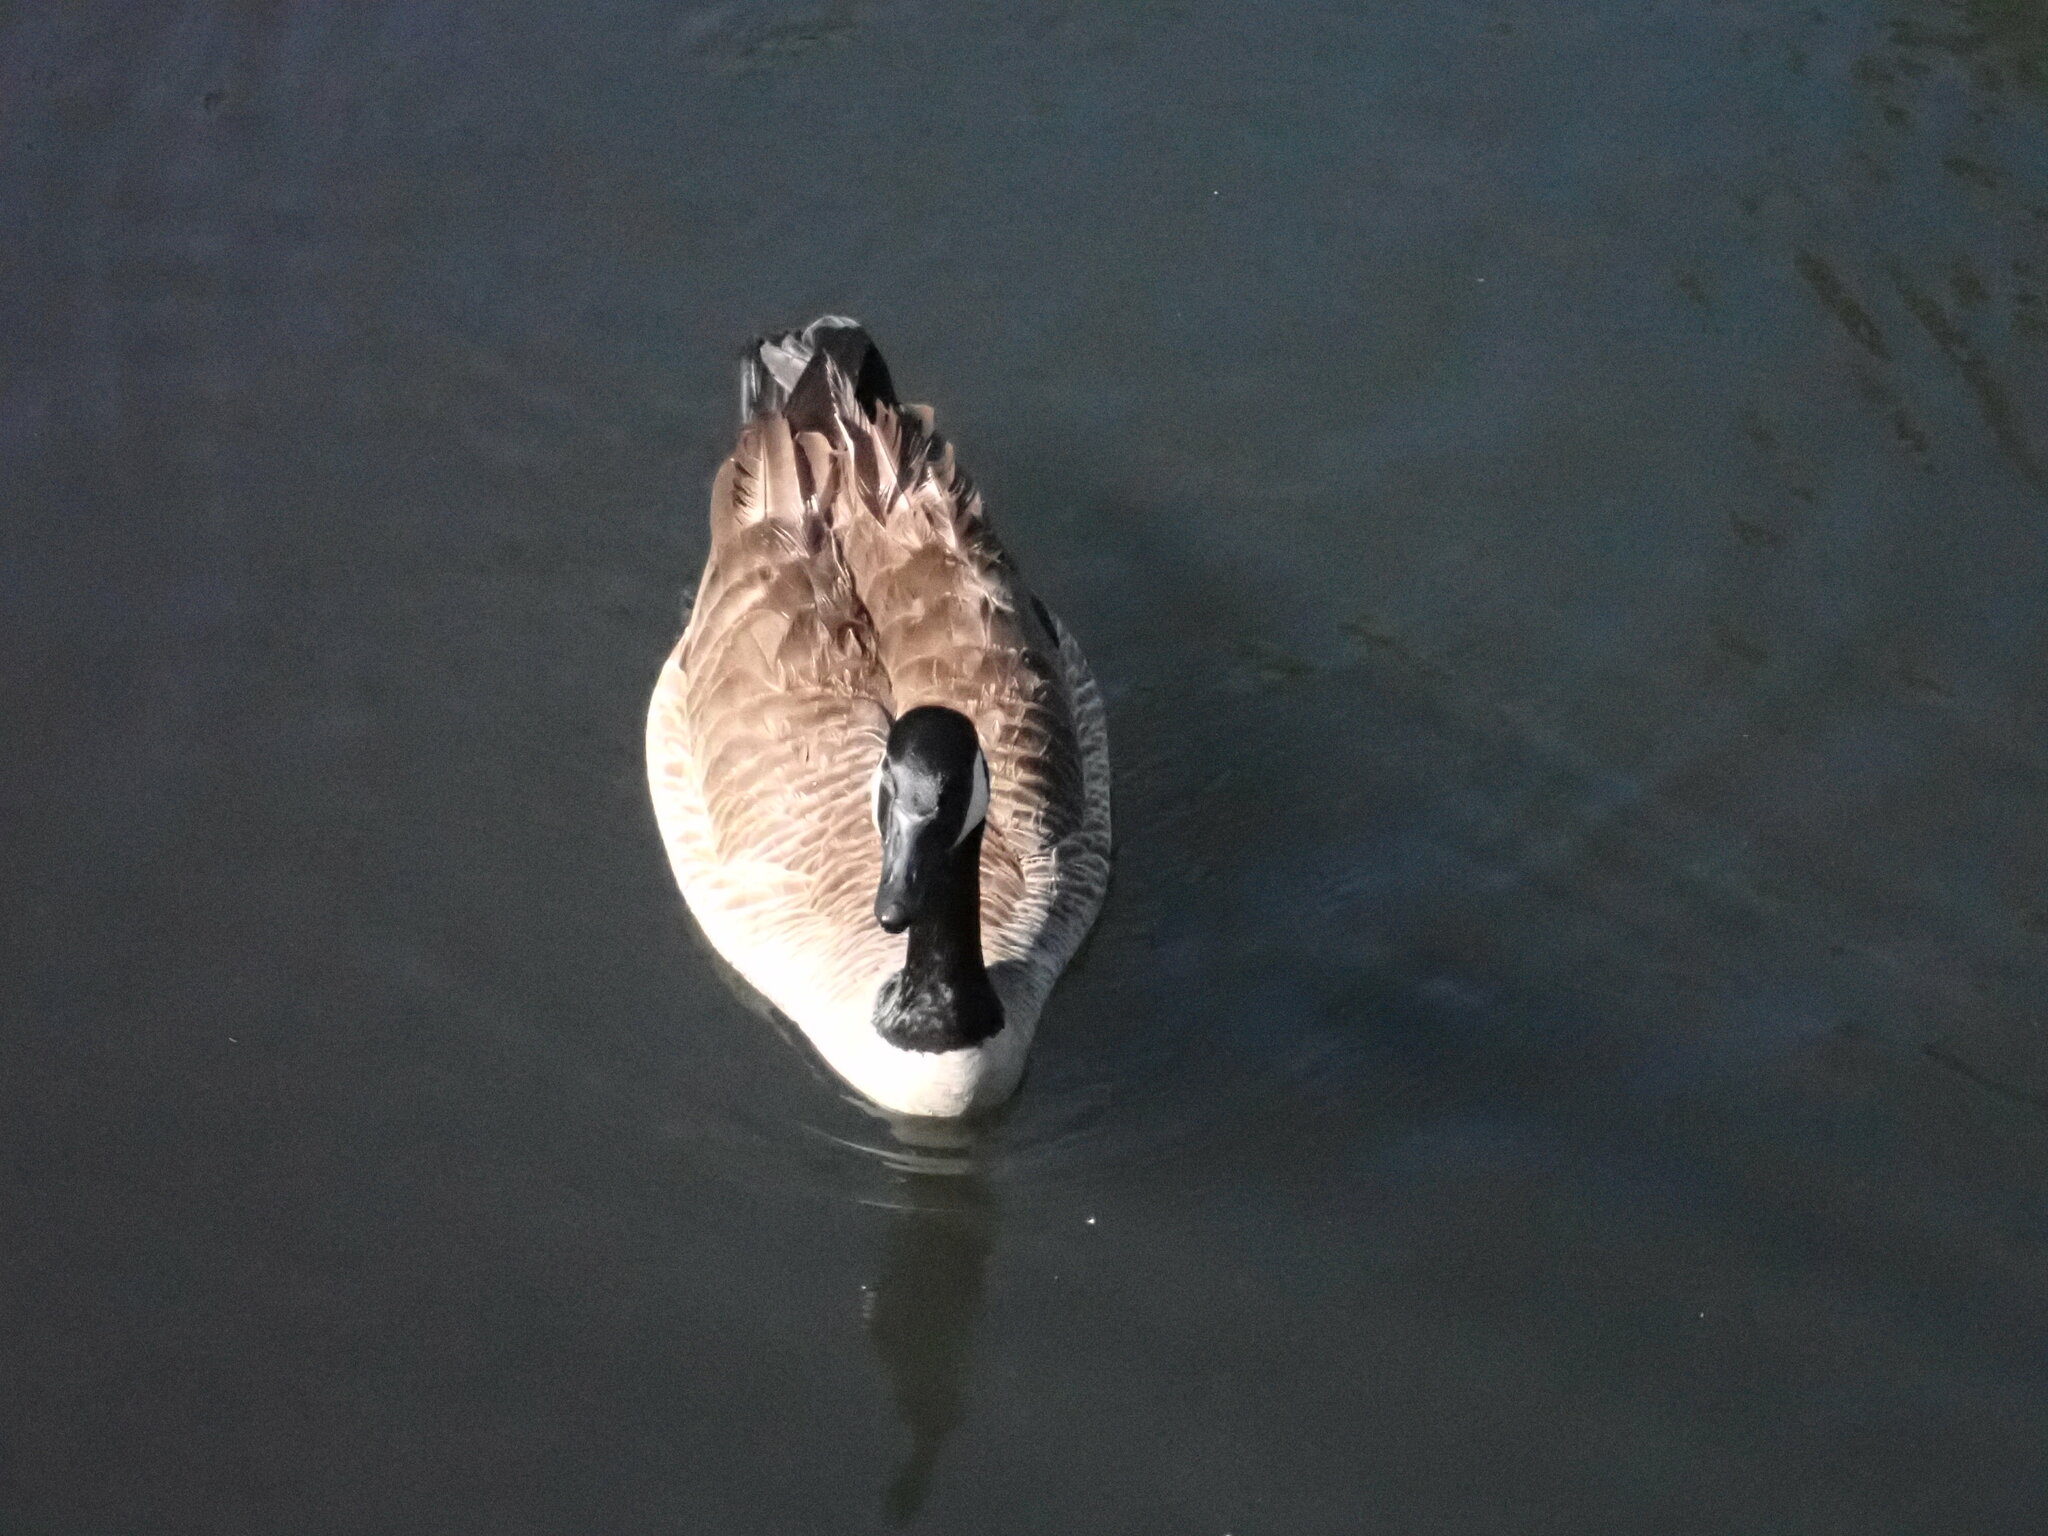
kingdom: Animalia
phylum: Chordata
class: Aves
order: Anseriformes
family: Anatidae
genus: Branta
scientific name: Branta canadensis
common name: Canada goose
